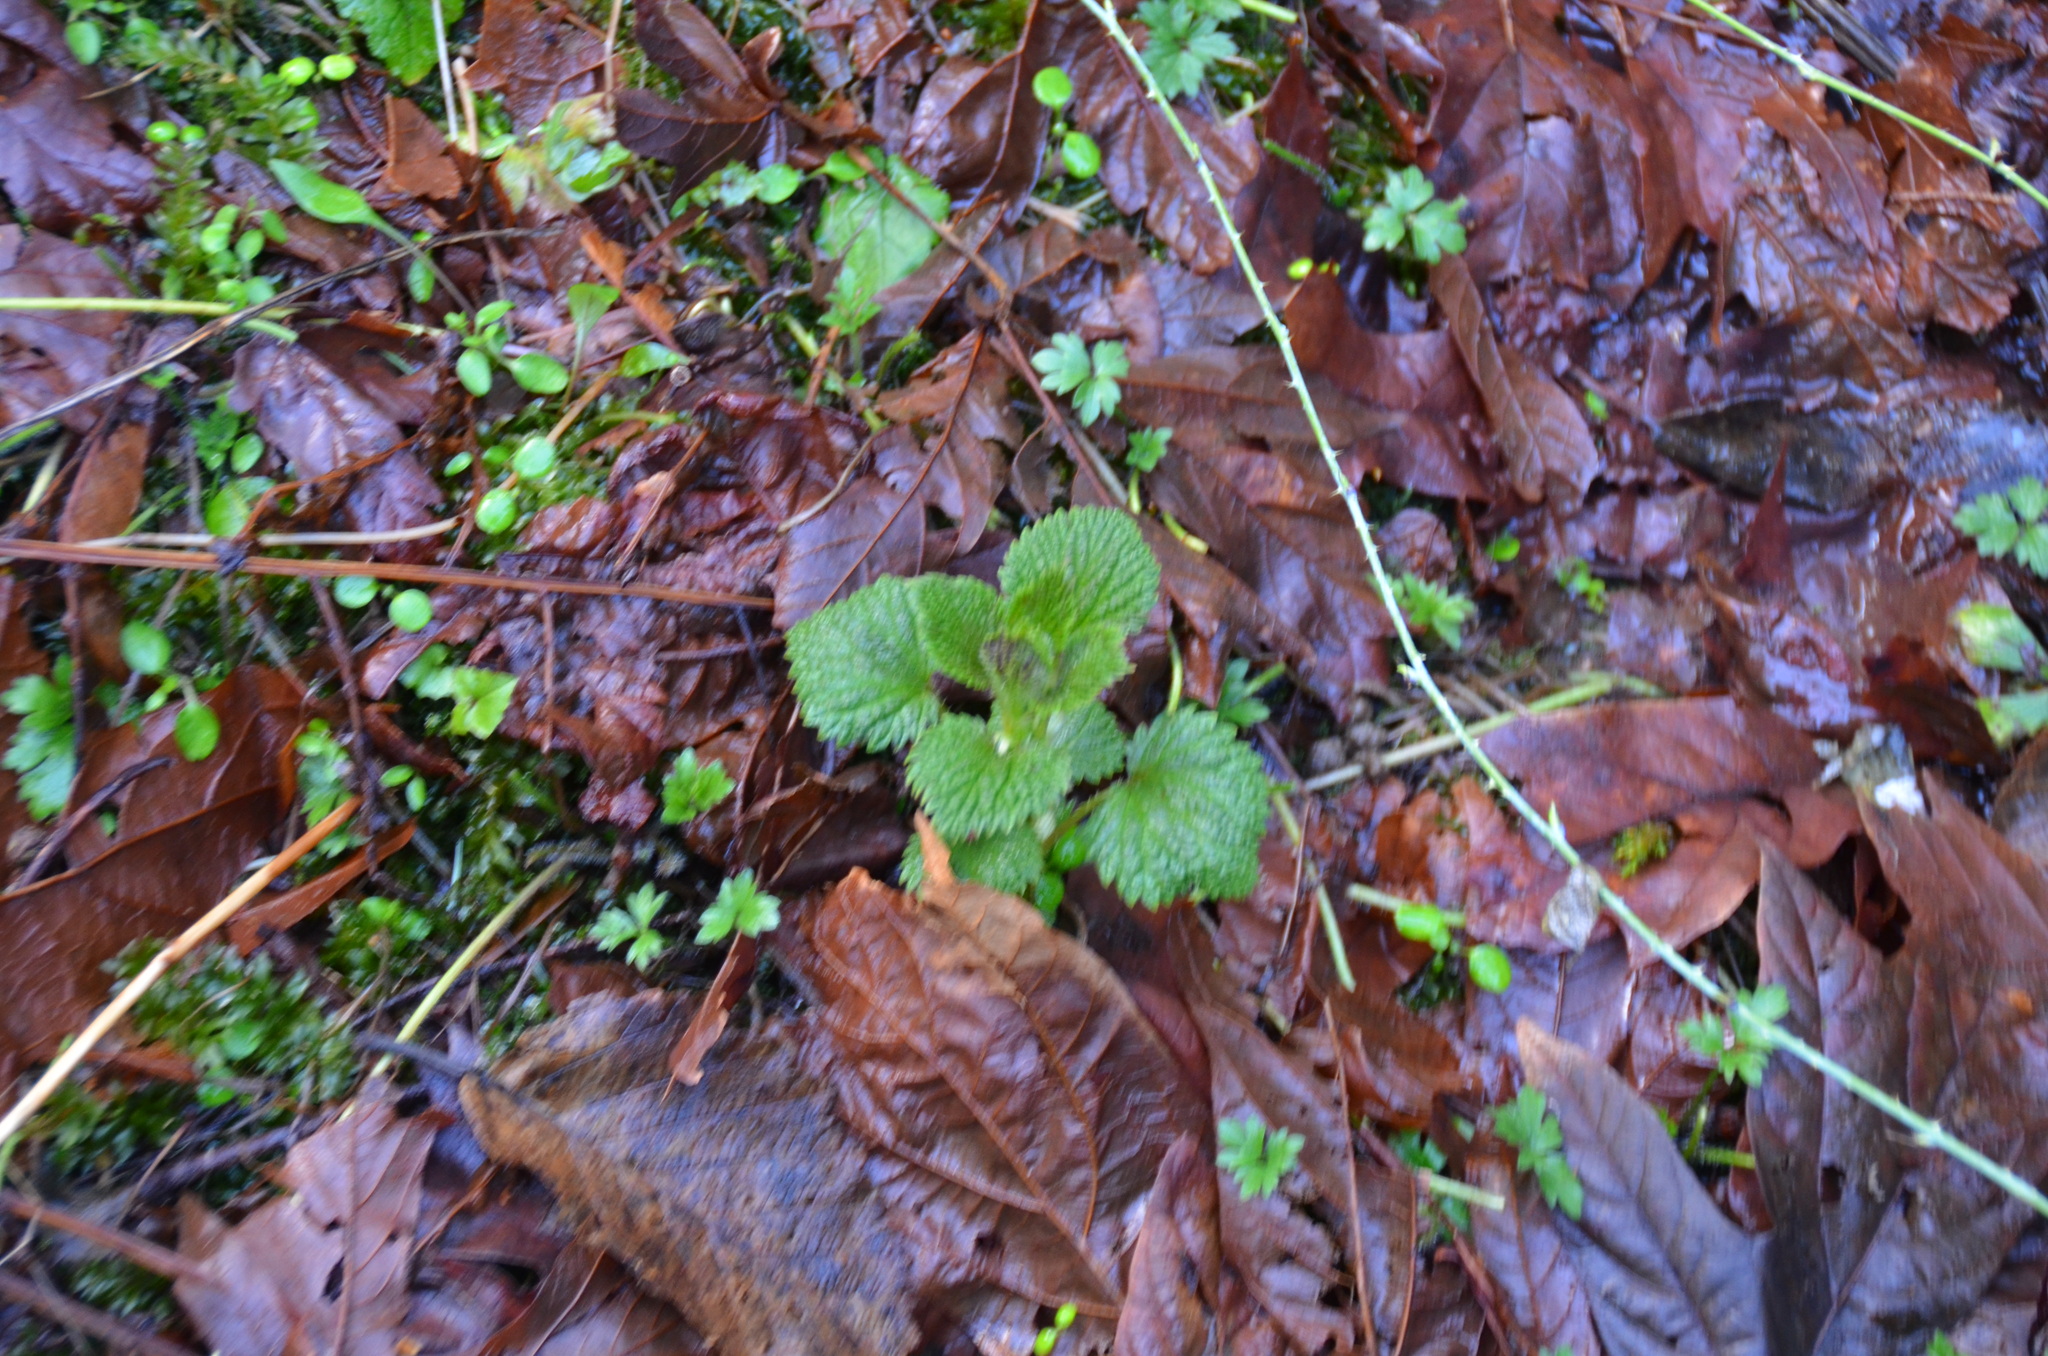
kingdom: Plantae
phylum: Tracheophyta
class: Magnoliopsida
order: Rosales
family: Urticaceae
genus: Urtica
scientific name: Urtica gracilis
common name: Slender stinging nettle
